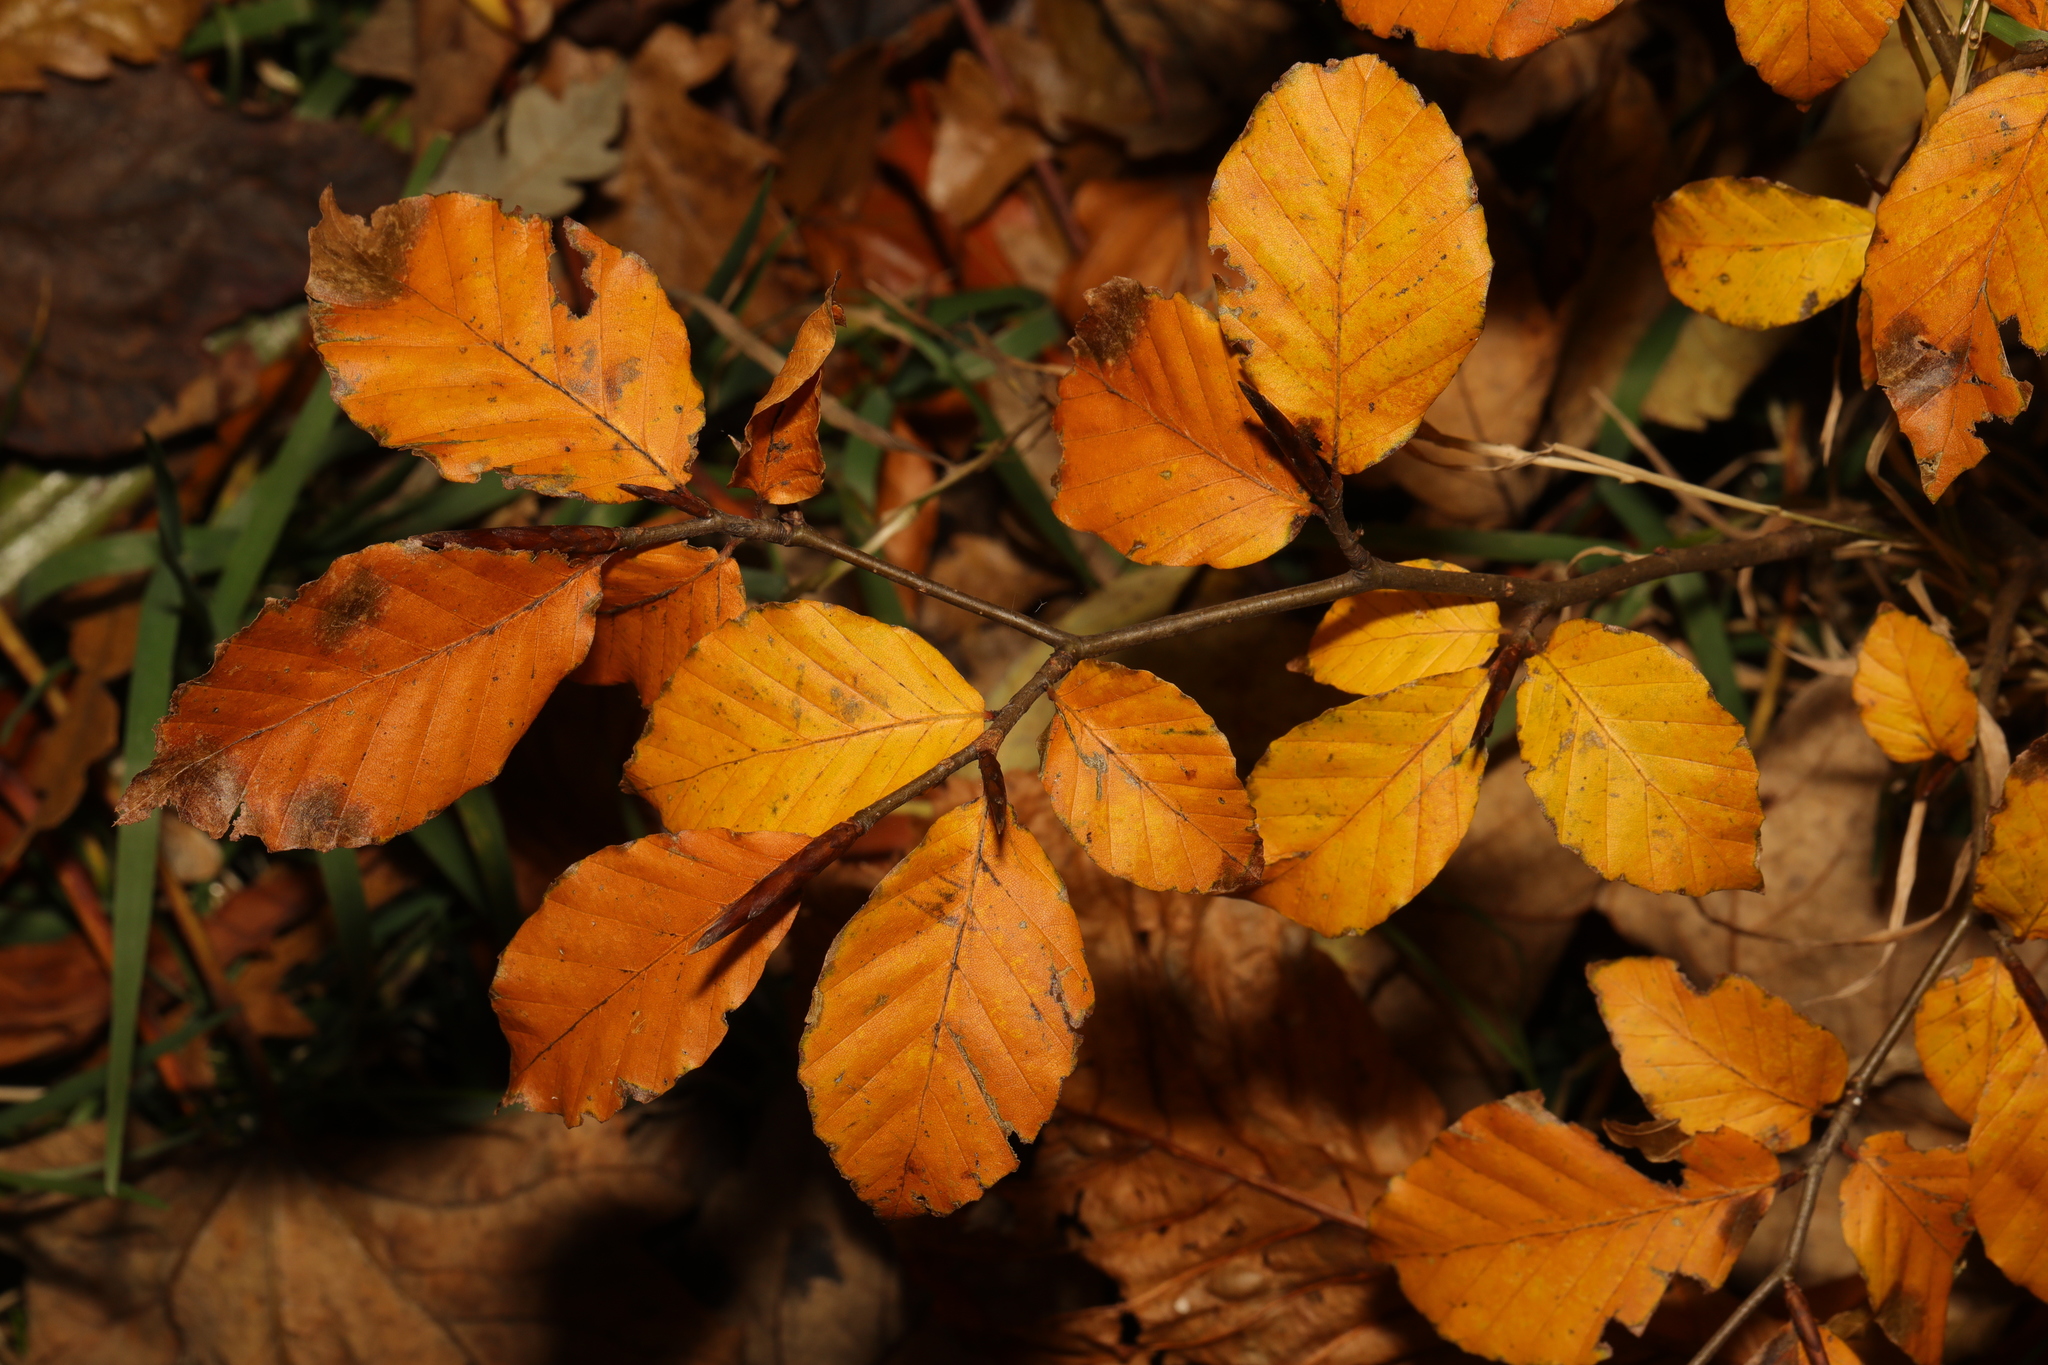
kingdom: Plantae
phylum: Tracheophyta
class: Magnoliopsida
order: Fagales
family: Fagaceae
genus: Fagus
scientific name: Fagus sylvatica
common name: Beech
